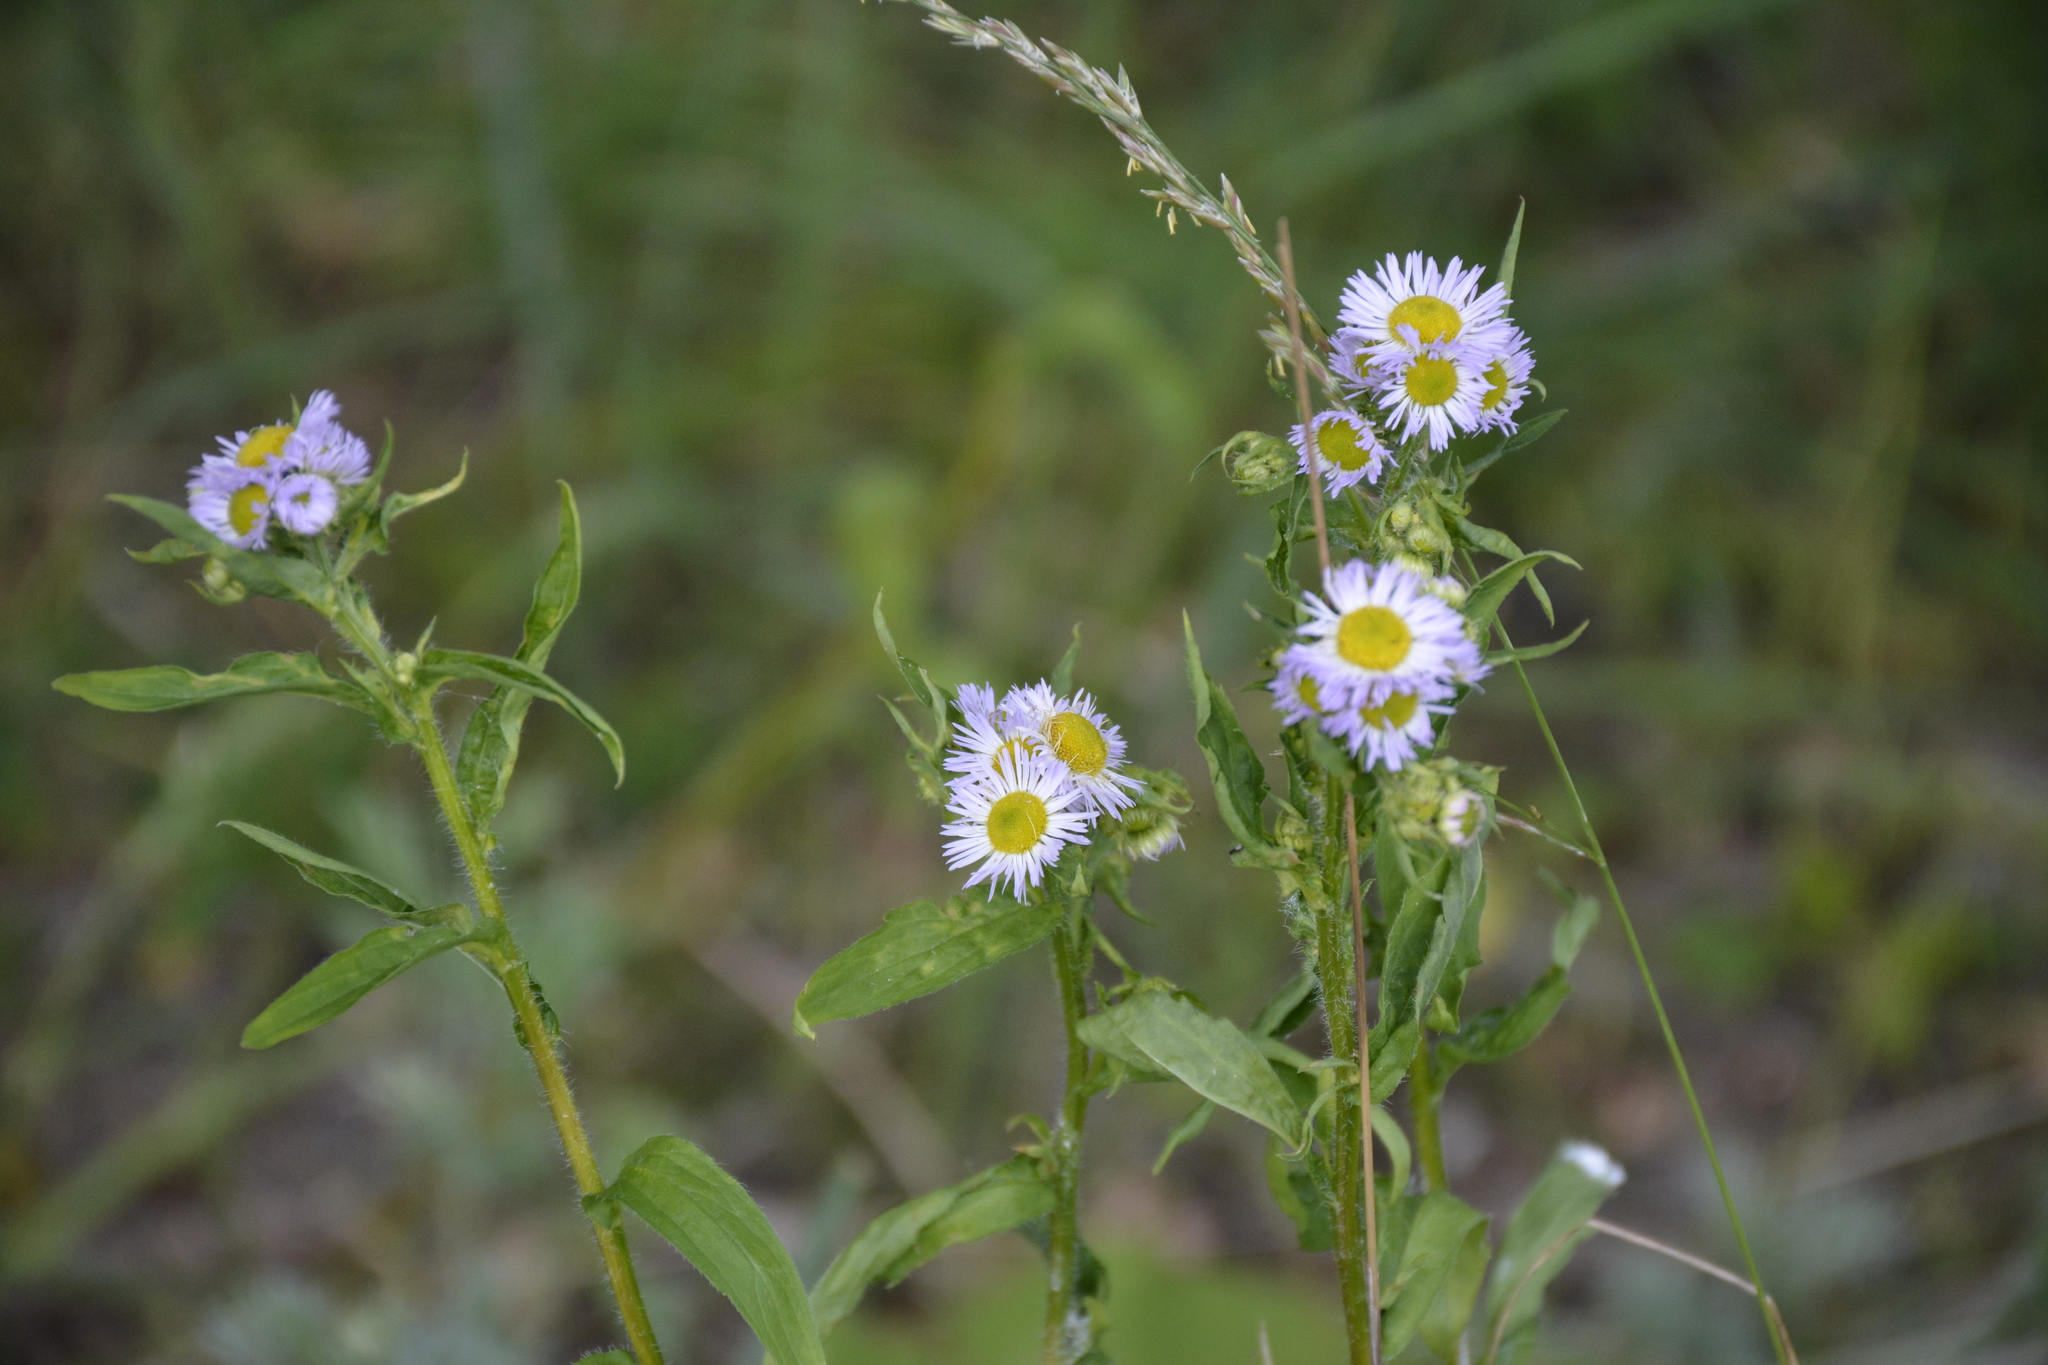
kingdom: Plantae
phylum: Tracheophyta
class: Magnoliopsida
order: Asterales
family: Asteraceae
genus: Erigeron
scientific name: Erigeron annuus
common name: Tall fleabane
